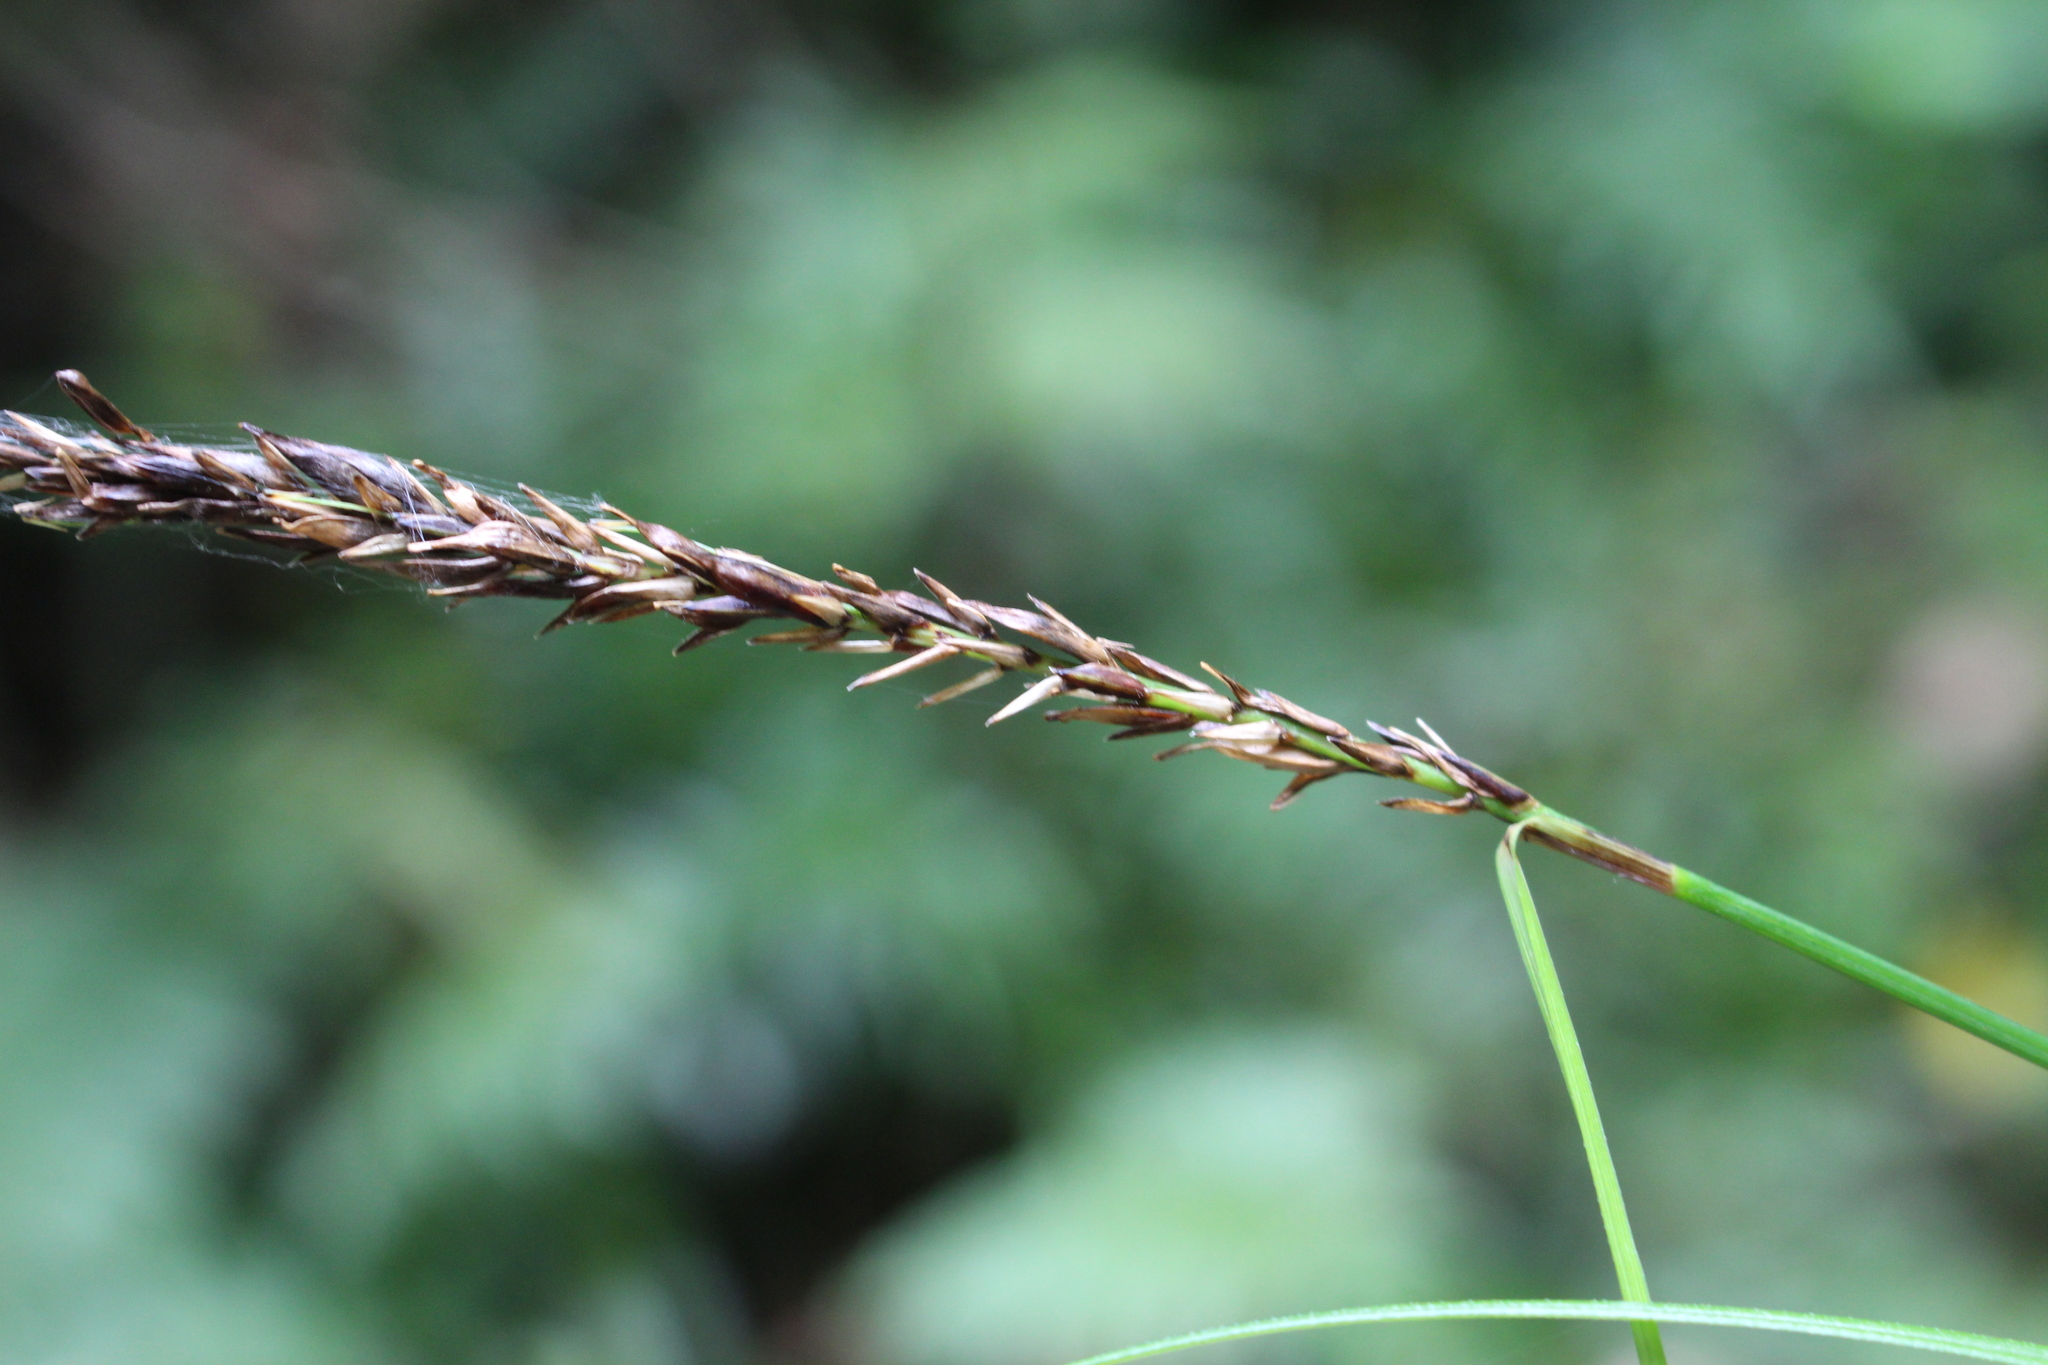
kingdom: Plantae
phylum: Tracheophyta
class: Liliopsida
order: Poales
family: Cyperaceae
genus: Carex
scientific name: Carex corynoidea
